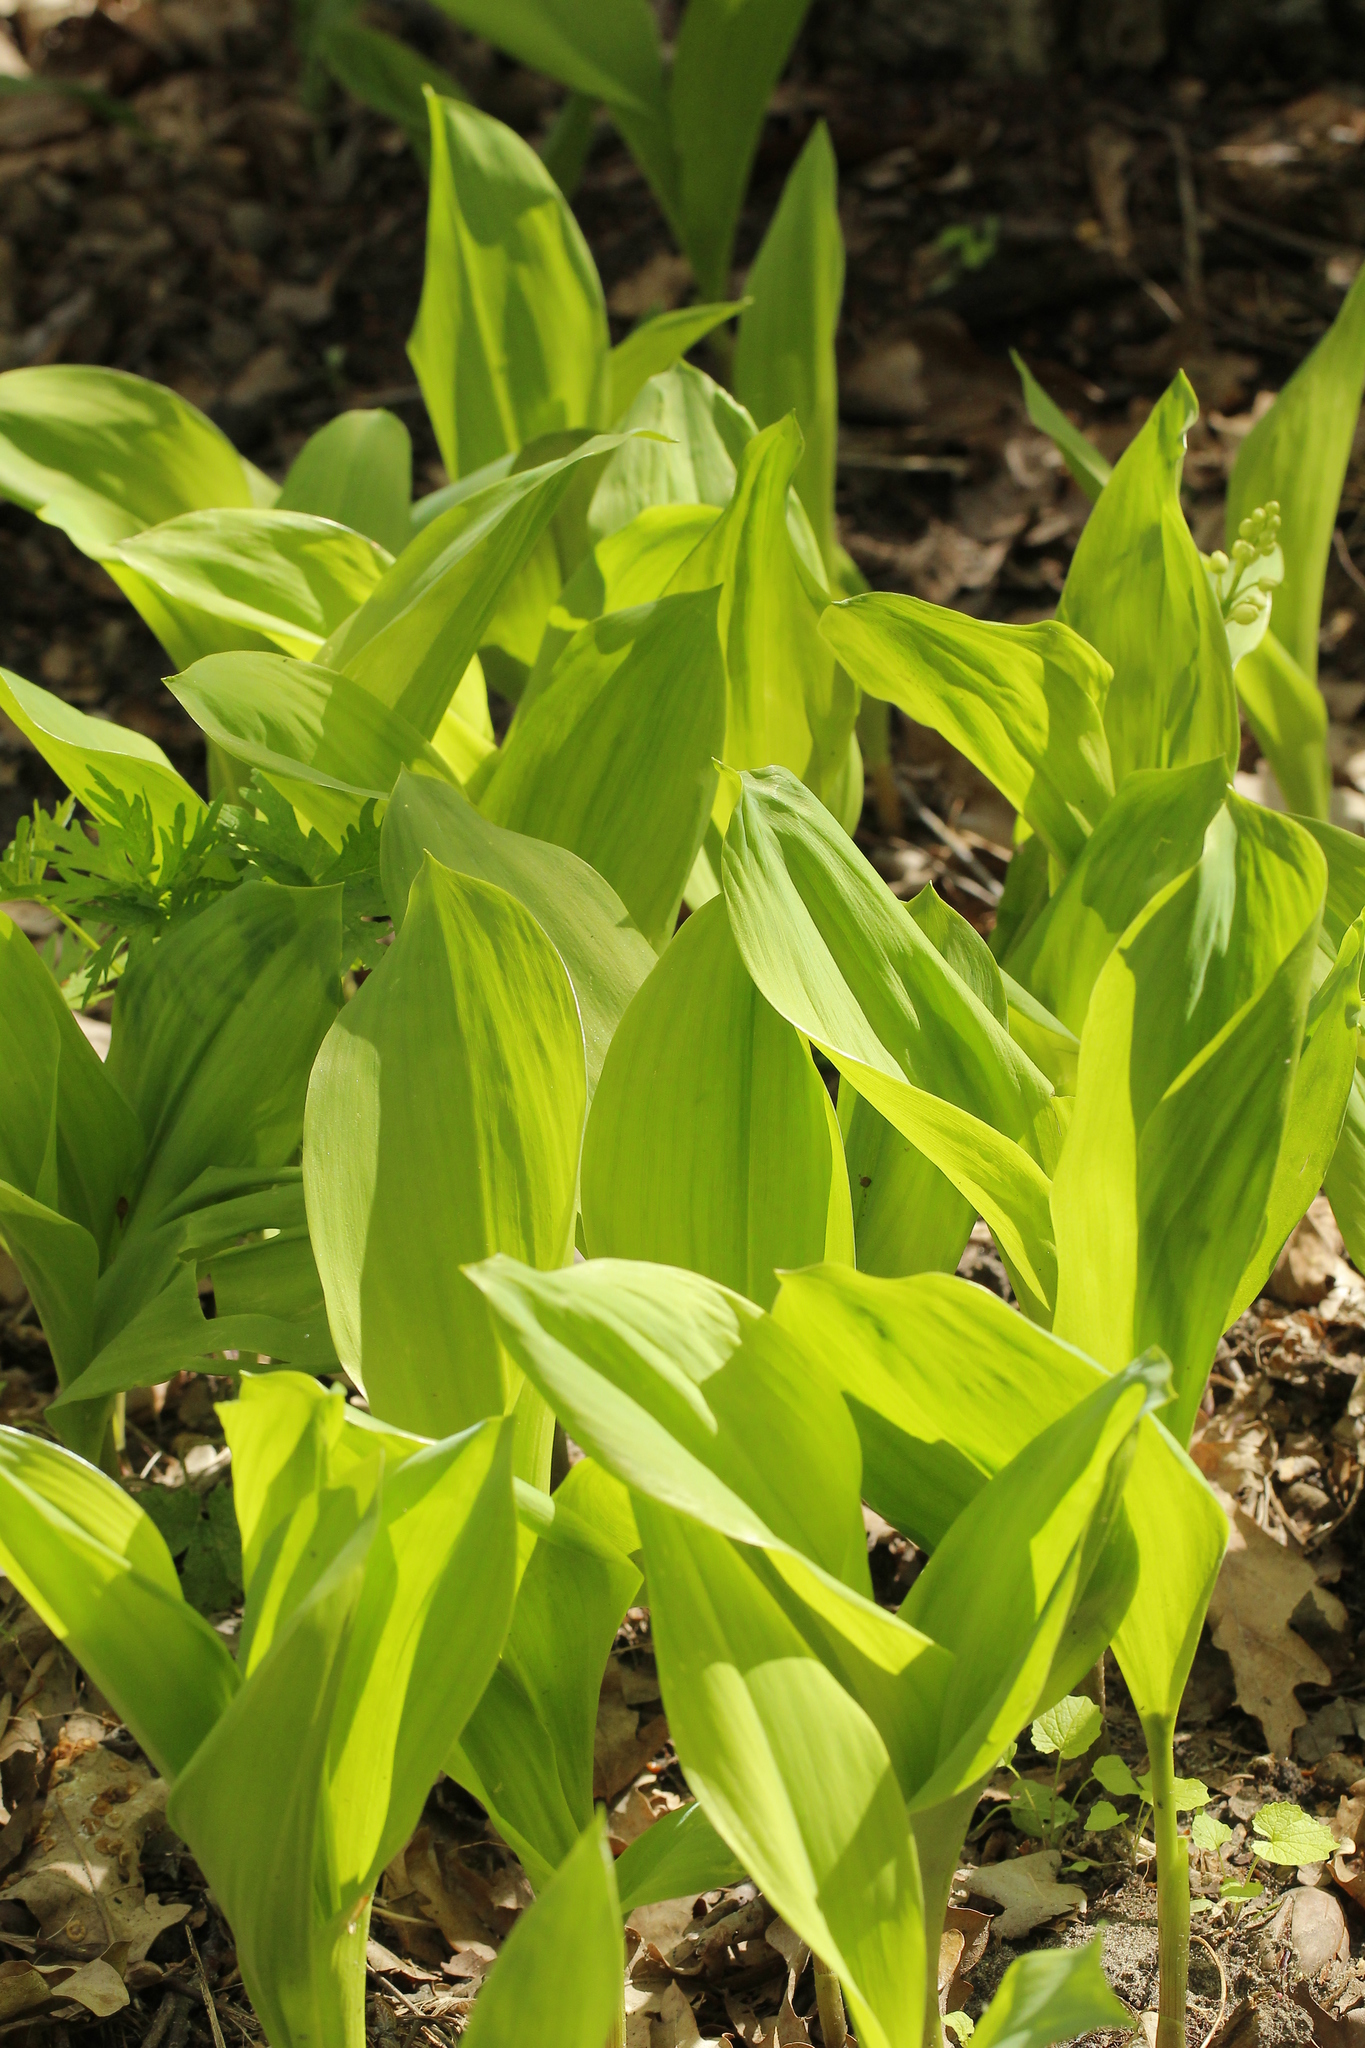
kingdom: Plantae
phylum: Tracheophyta
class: Liliopsida
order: Asparagales
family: Asparagaceae
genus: Convallaria
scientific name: Convallaria majalis
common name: Lily-of-the-valley
